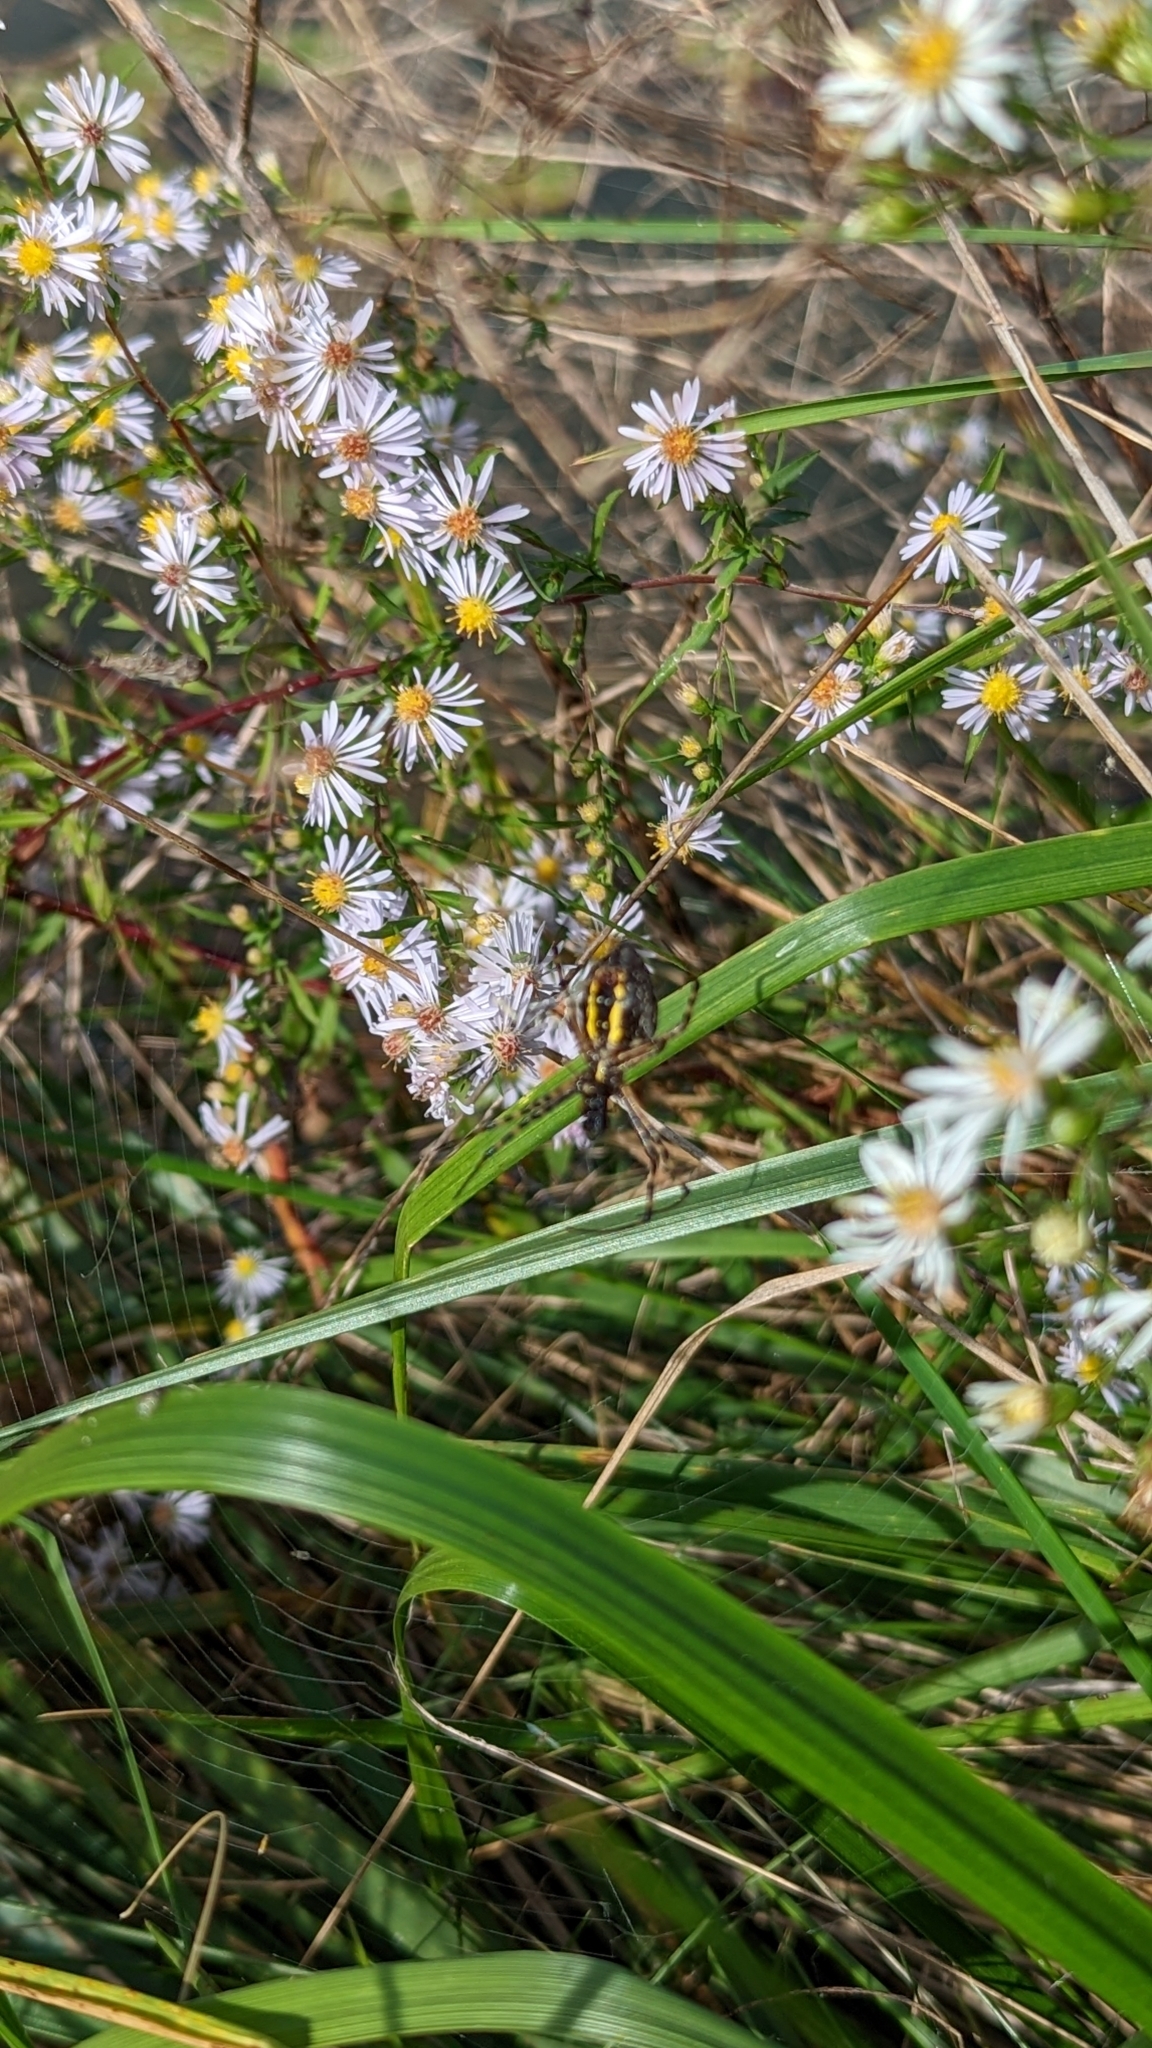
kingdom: Animalia
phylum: Arthropoda
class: Arachnida
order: Araneae
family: Araneidae
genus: Argiope
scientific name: Argiope trifasciata
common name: Banded garden spider
